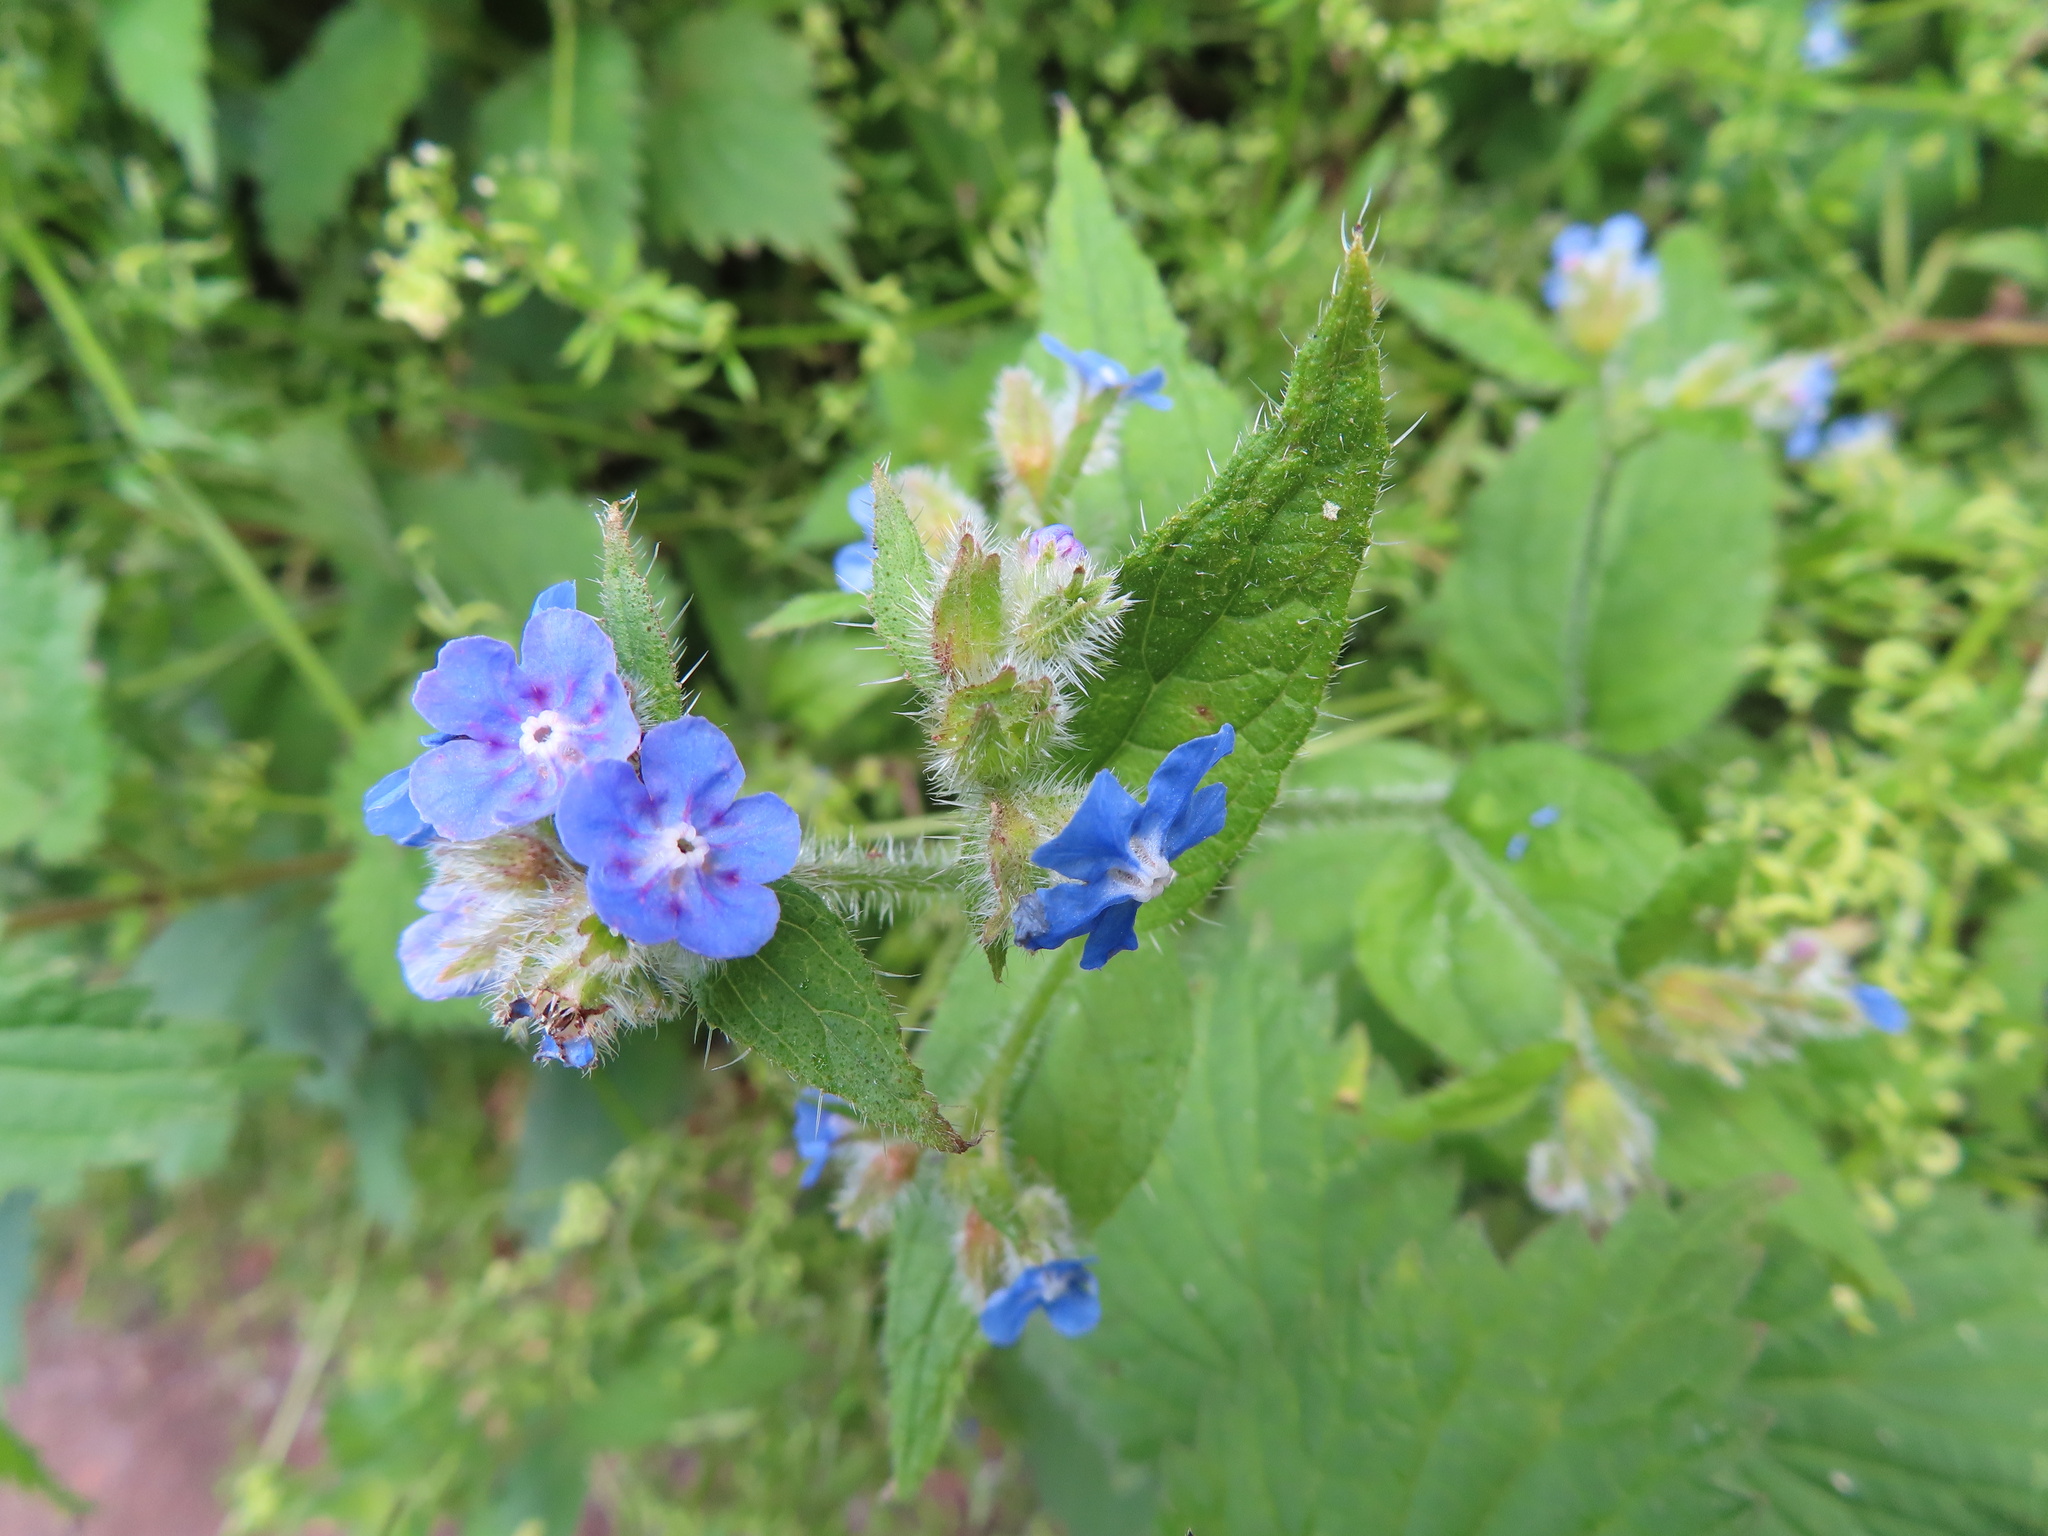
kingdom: Plantae
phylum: Tracheophyta
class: Magnoliopsida
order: Boraginales
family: Boraginaceae
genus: Pentaglottis
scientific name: Pentaglottis sempervirens
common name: Green alkanet
